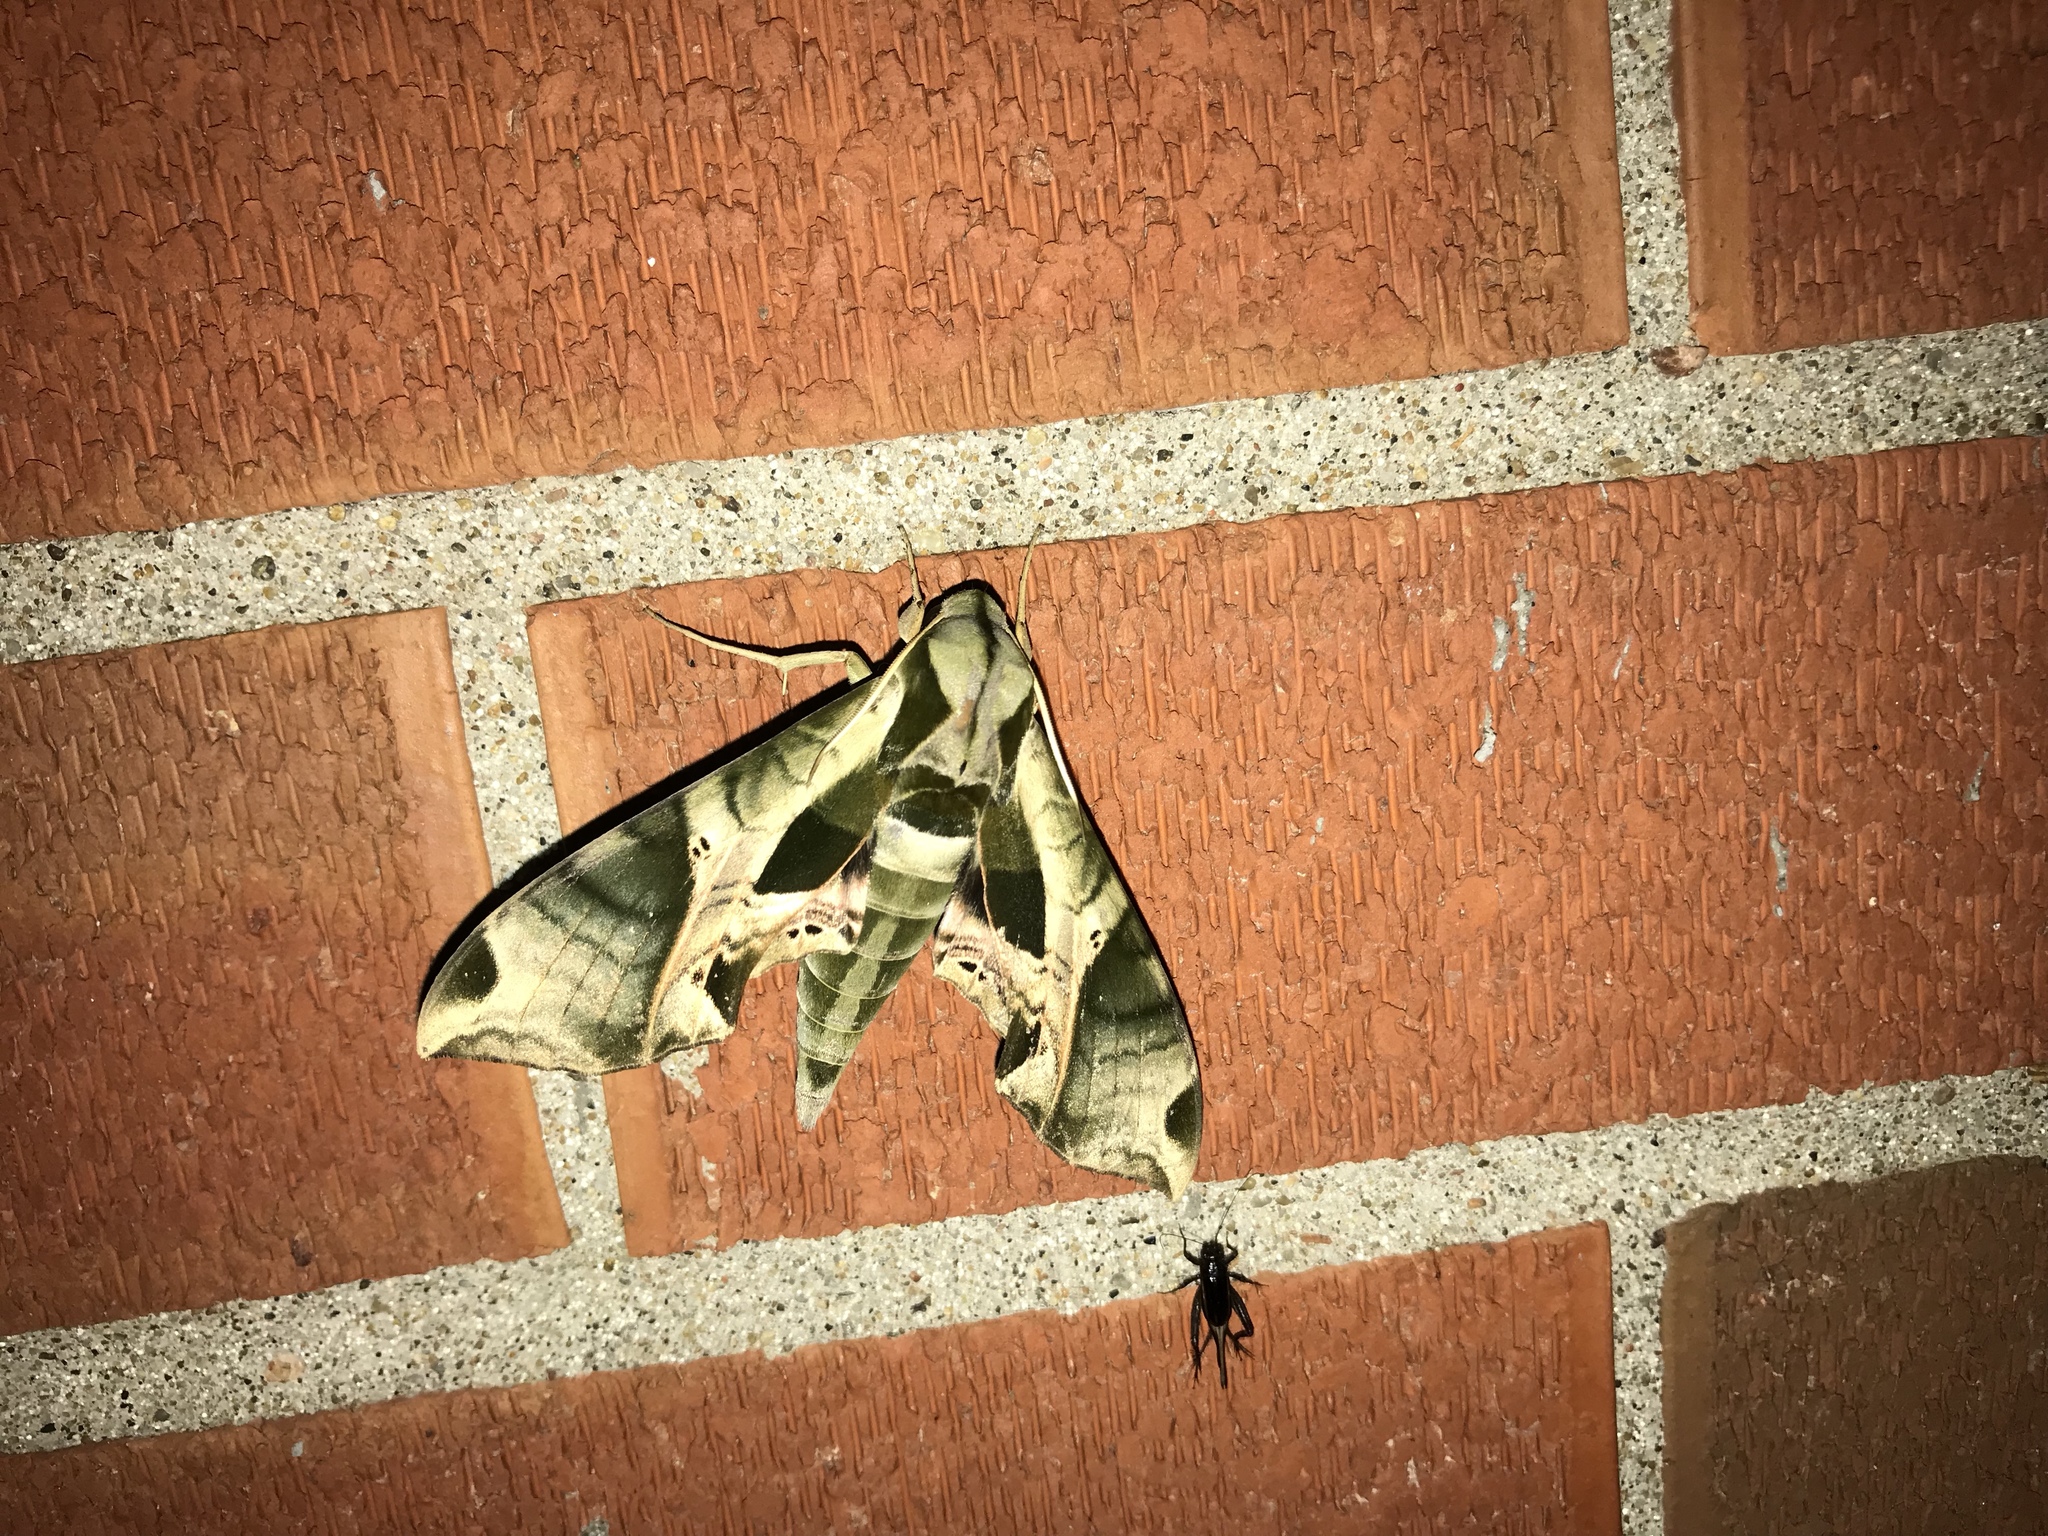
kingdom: Animalia
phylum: Arthropoda
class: Insecta
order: Lepidoptera
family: Sphingidae
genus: Eumorpha
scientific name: Eumorpha pandorus
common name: Pandora sphinx
